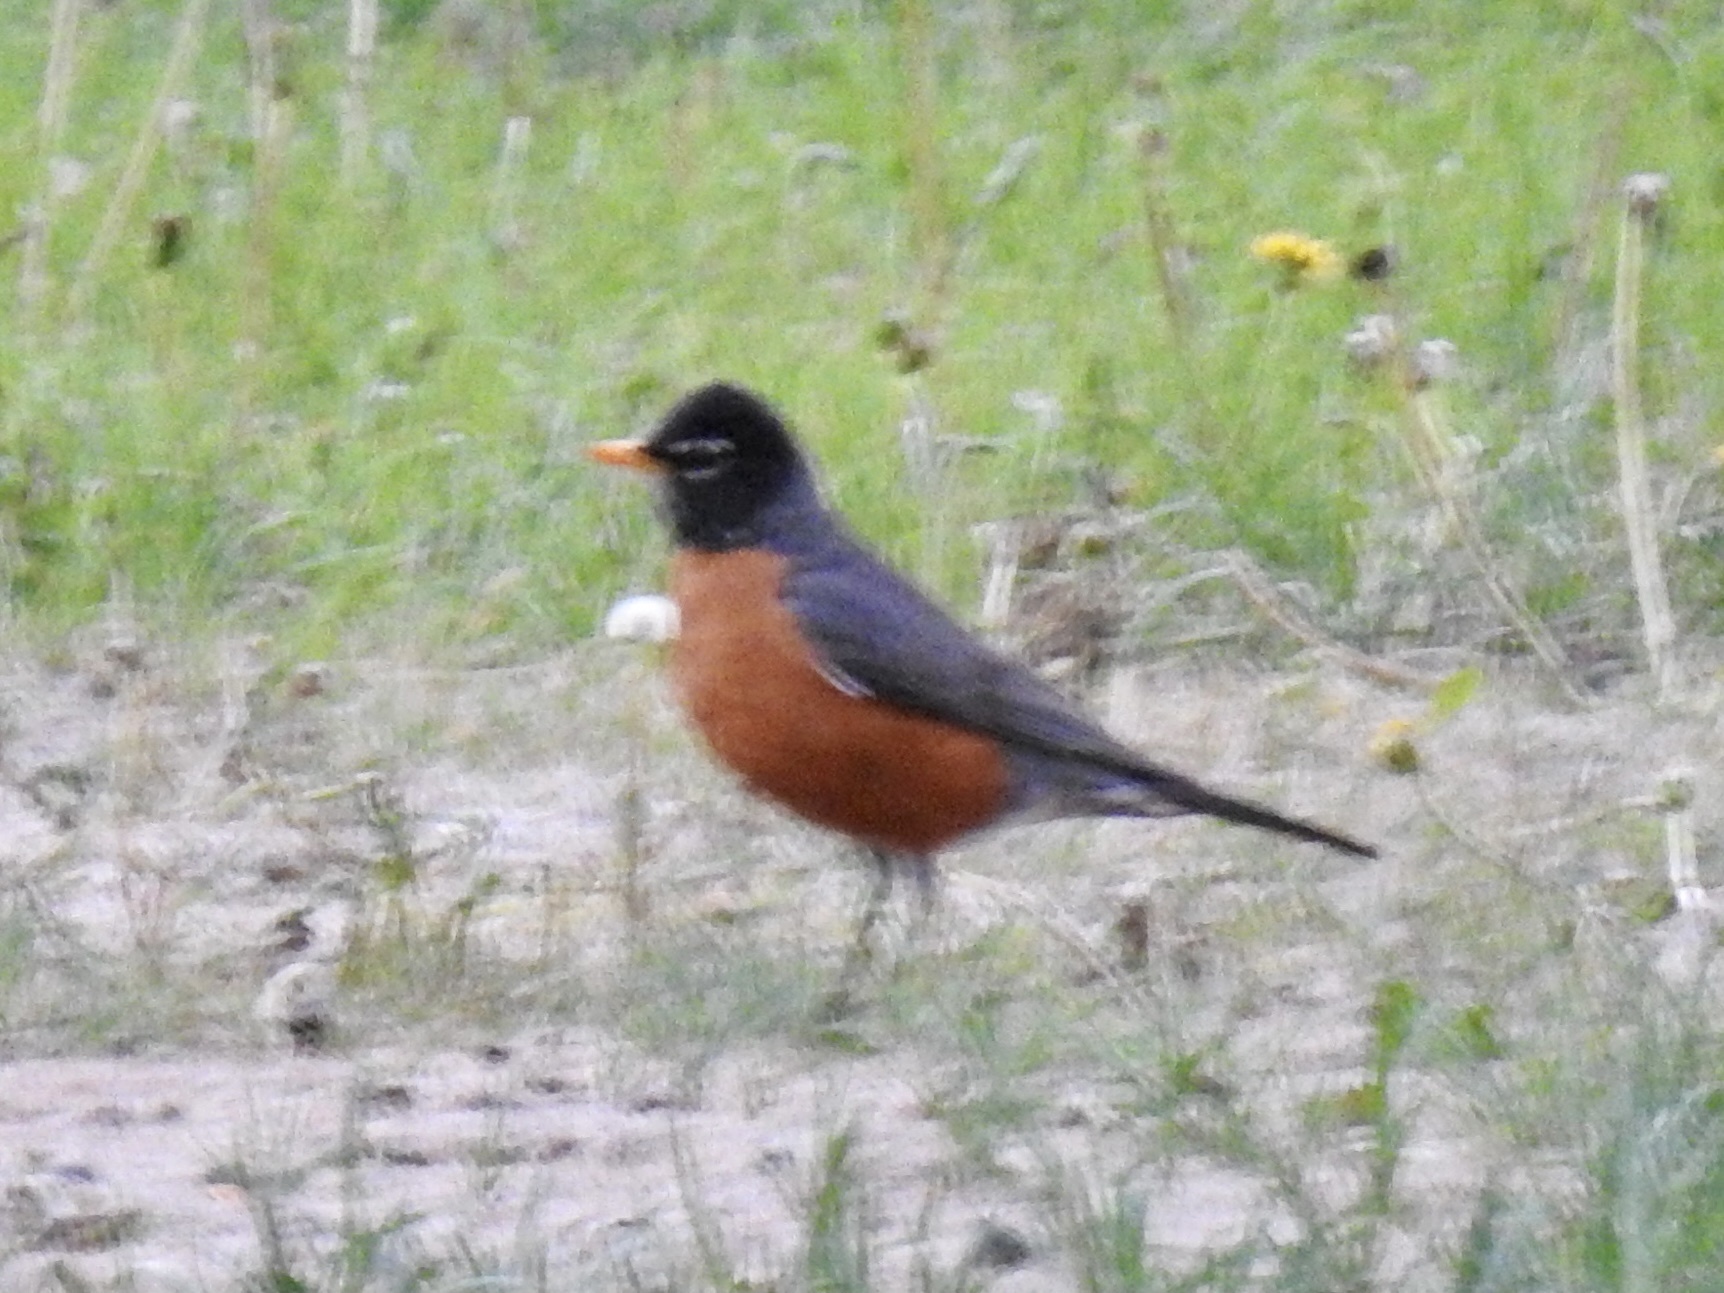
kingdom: Animalia
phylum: Chordata
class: Aves
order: Passeriformes
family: Turdidae
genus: Turdus
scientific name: Turdus migratorius
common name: American robin
